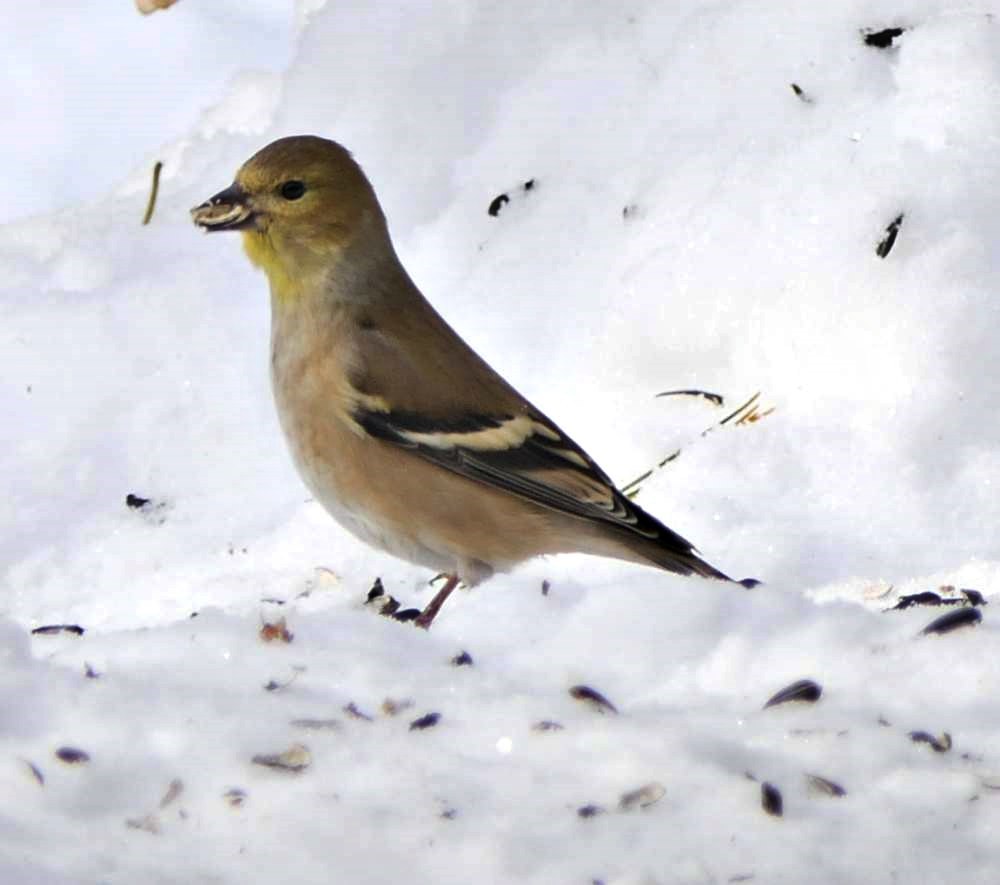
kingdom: Animalia
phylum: Chordata
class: Aves
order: Passeriformes
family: Fringillidae
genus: Spinus
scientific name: Spinus tristis
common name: American goldfinch
